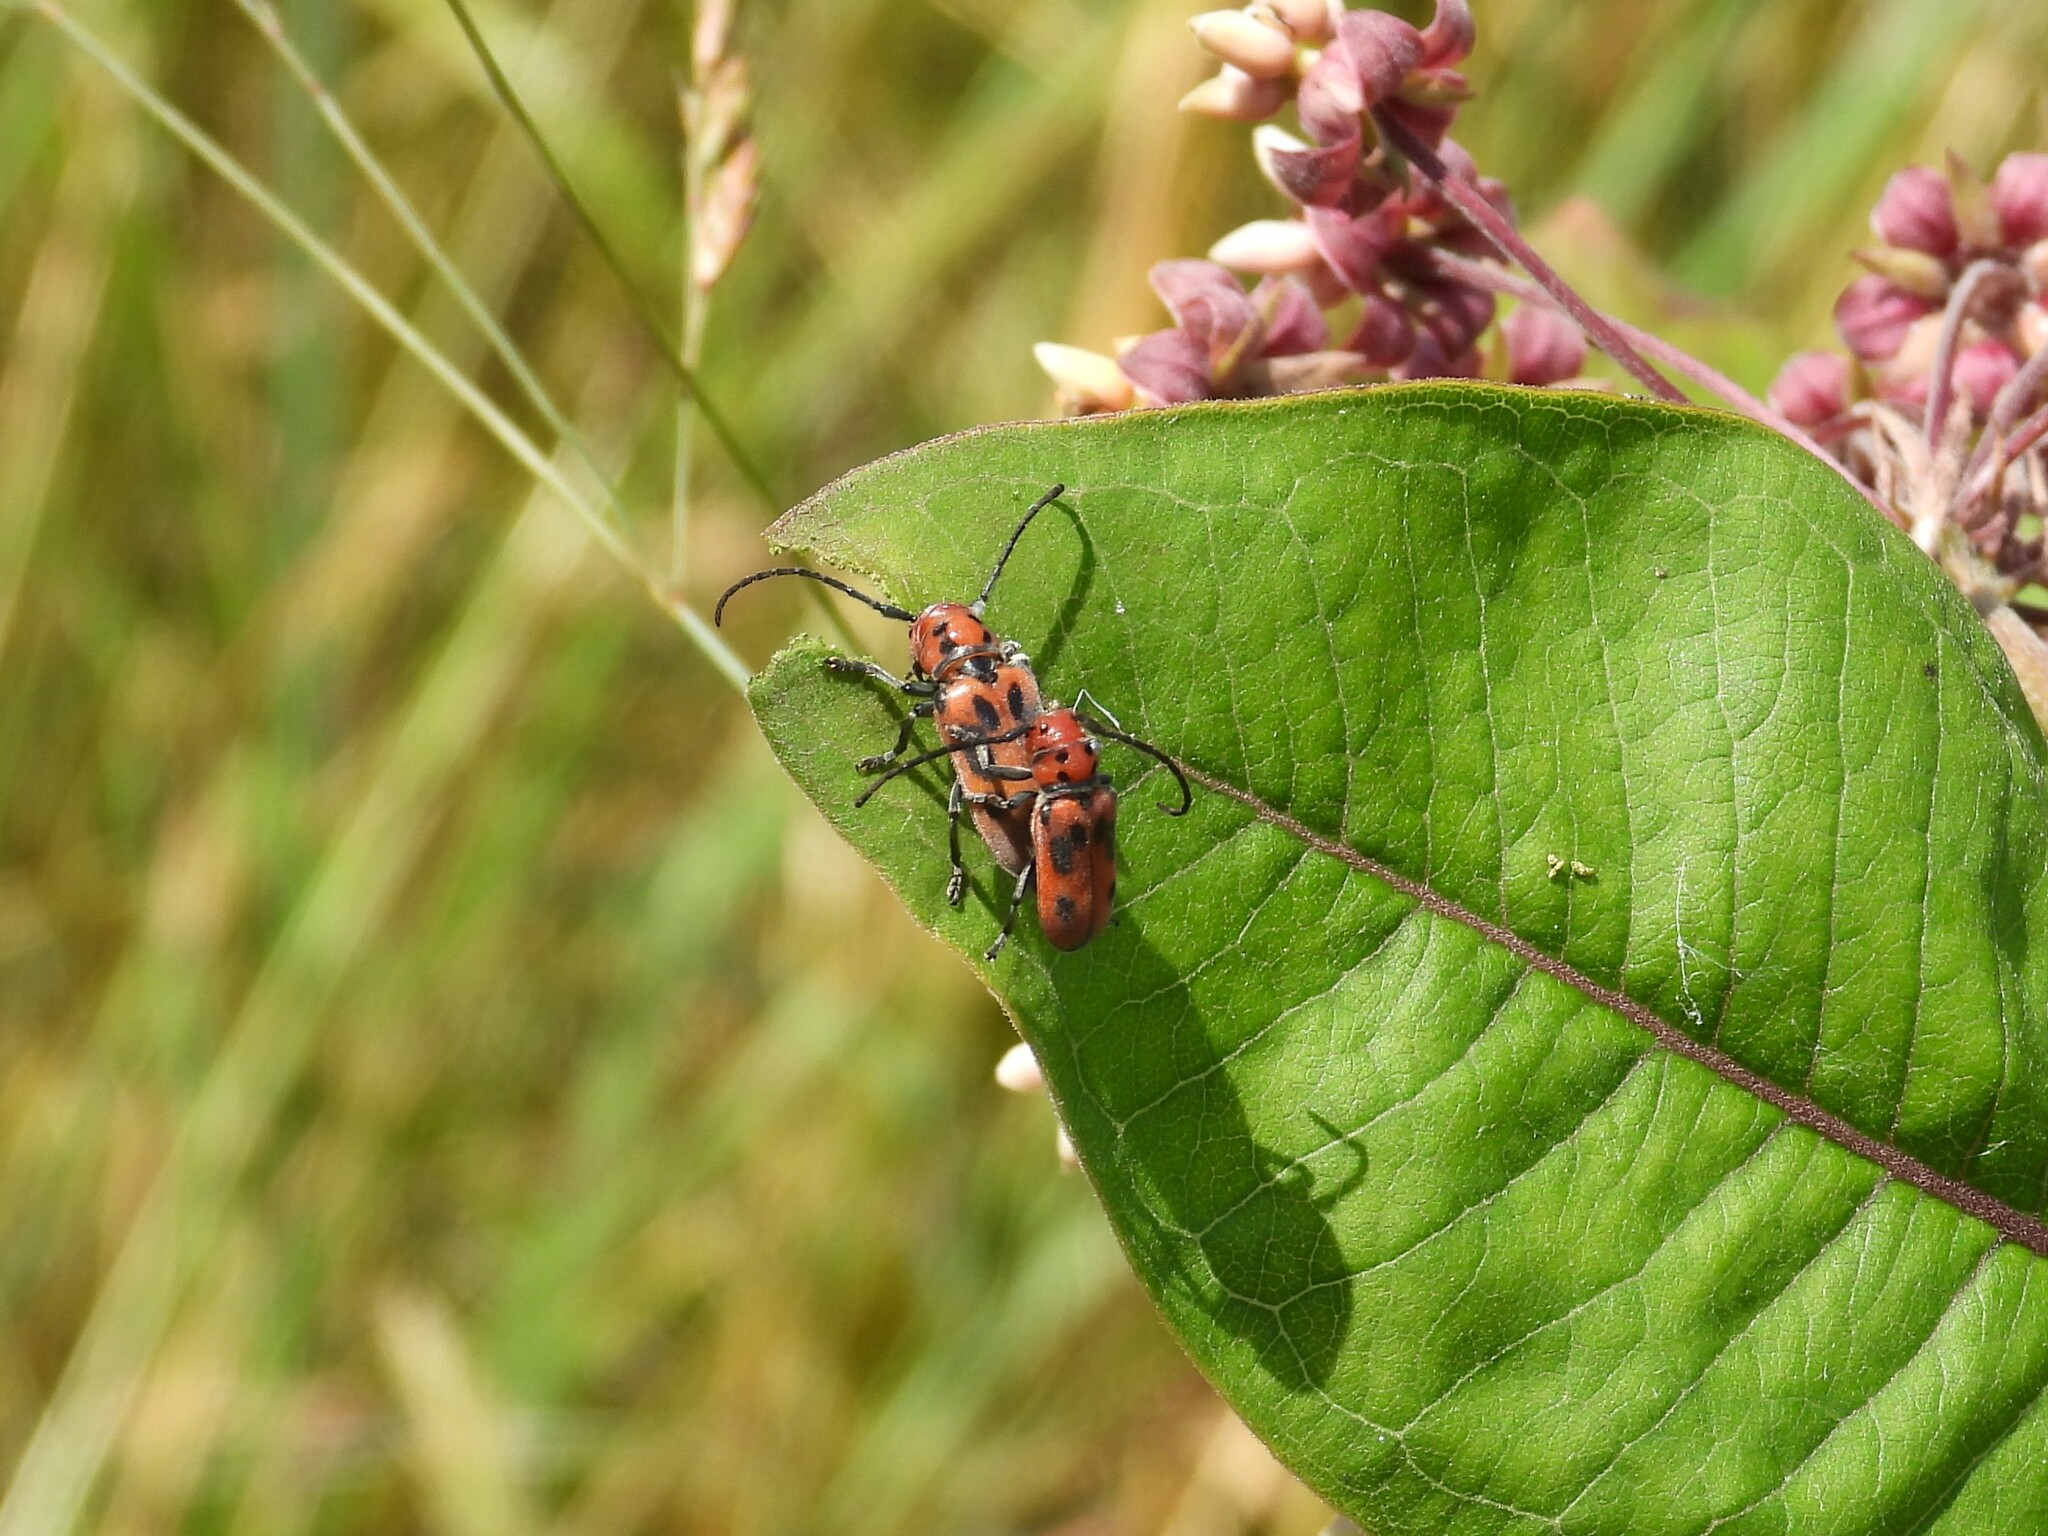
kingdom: Animalia
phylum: Arthropoda
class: Insecta
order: Coleoptera
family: Cerambycidae
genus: Tetraopes
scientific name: Tetraopes tetrophthalmus
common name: Red milkweed beetle
